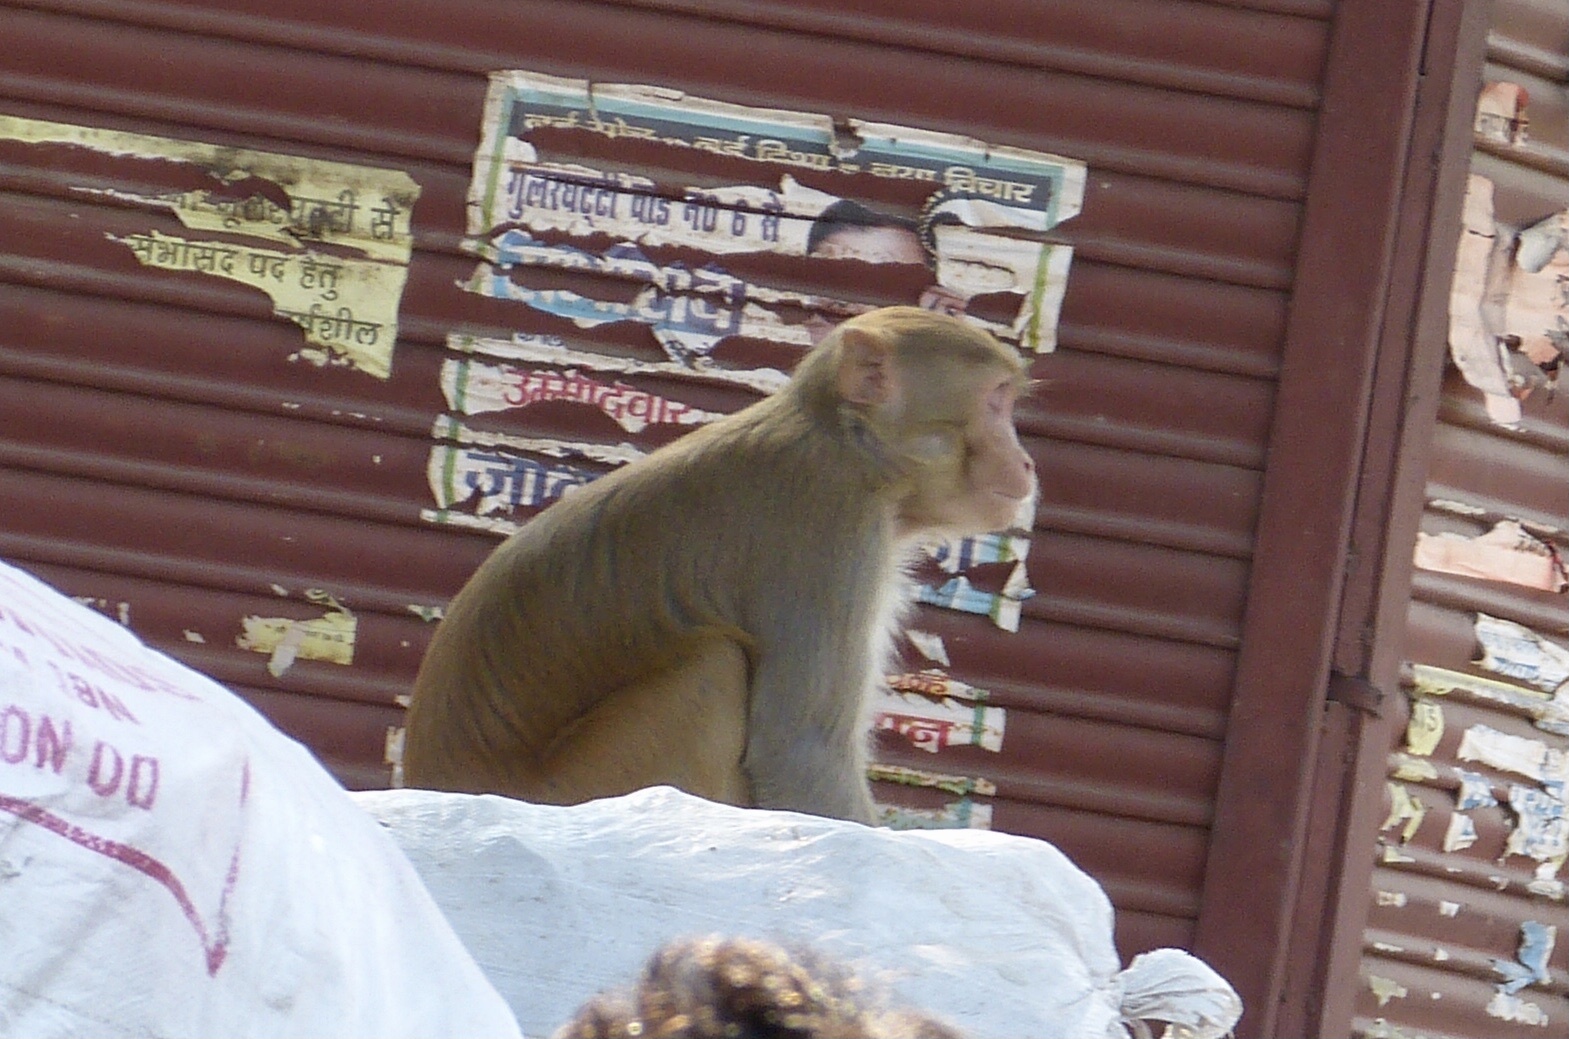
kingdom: Animalia
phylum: Chordata
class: Mammalia
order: Primates
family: Cercopithecidae
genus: Macaca
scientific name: Macaca mulatta
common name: Rhesus monkey
